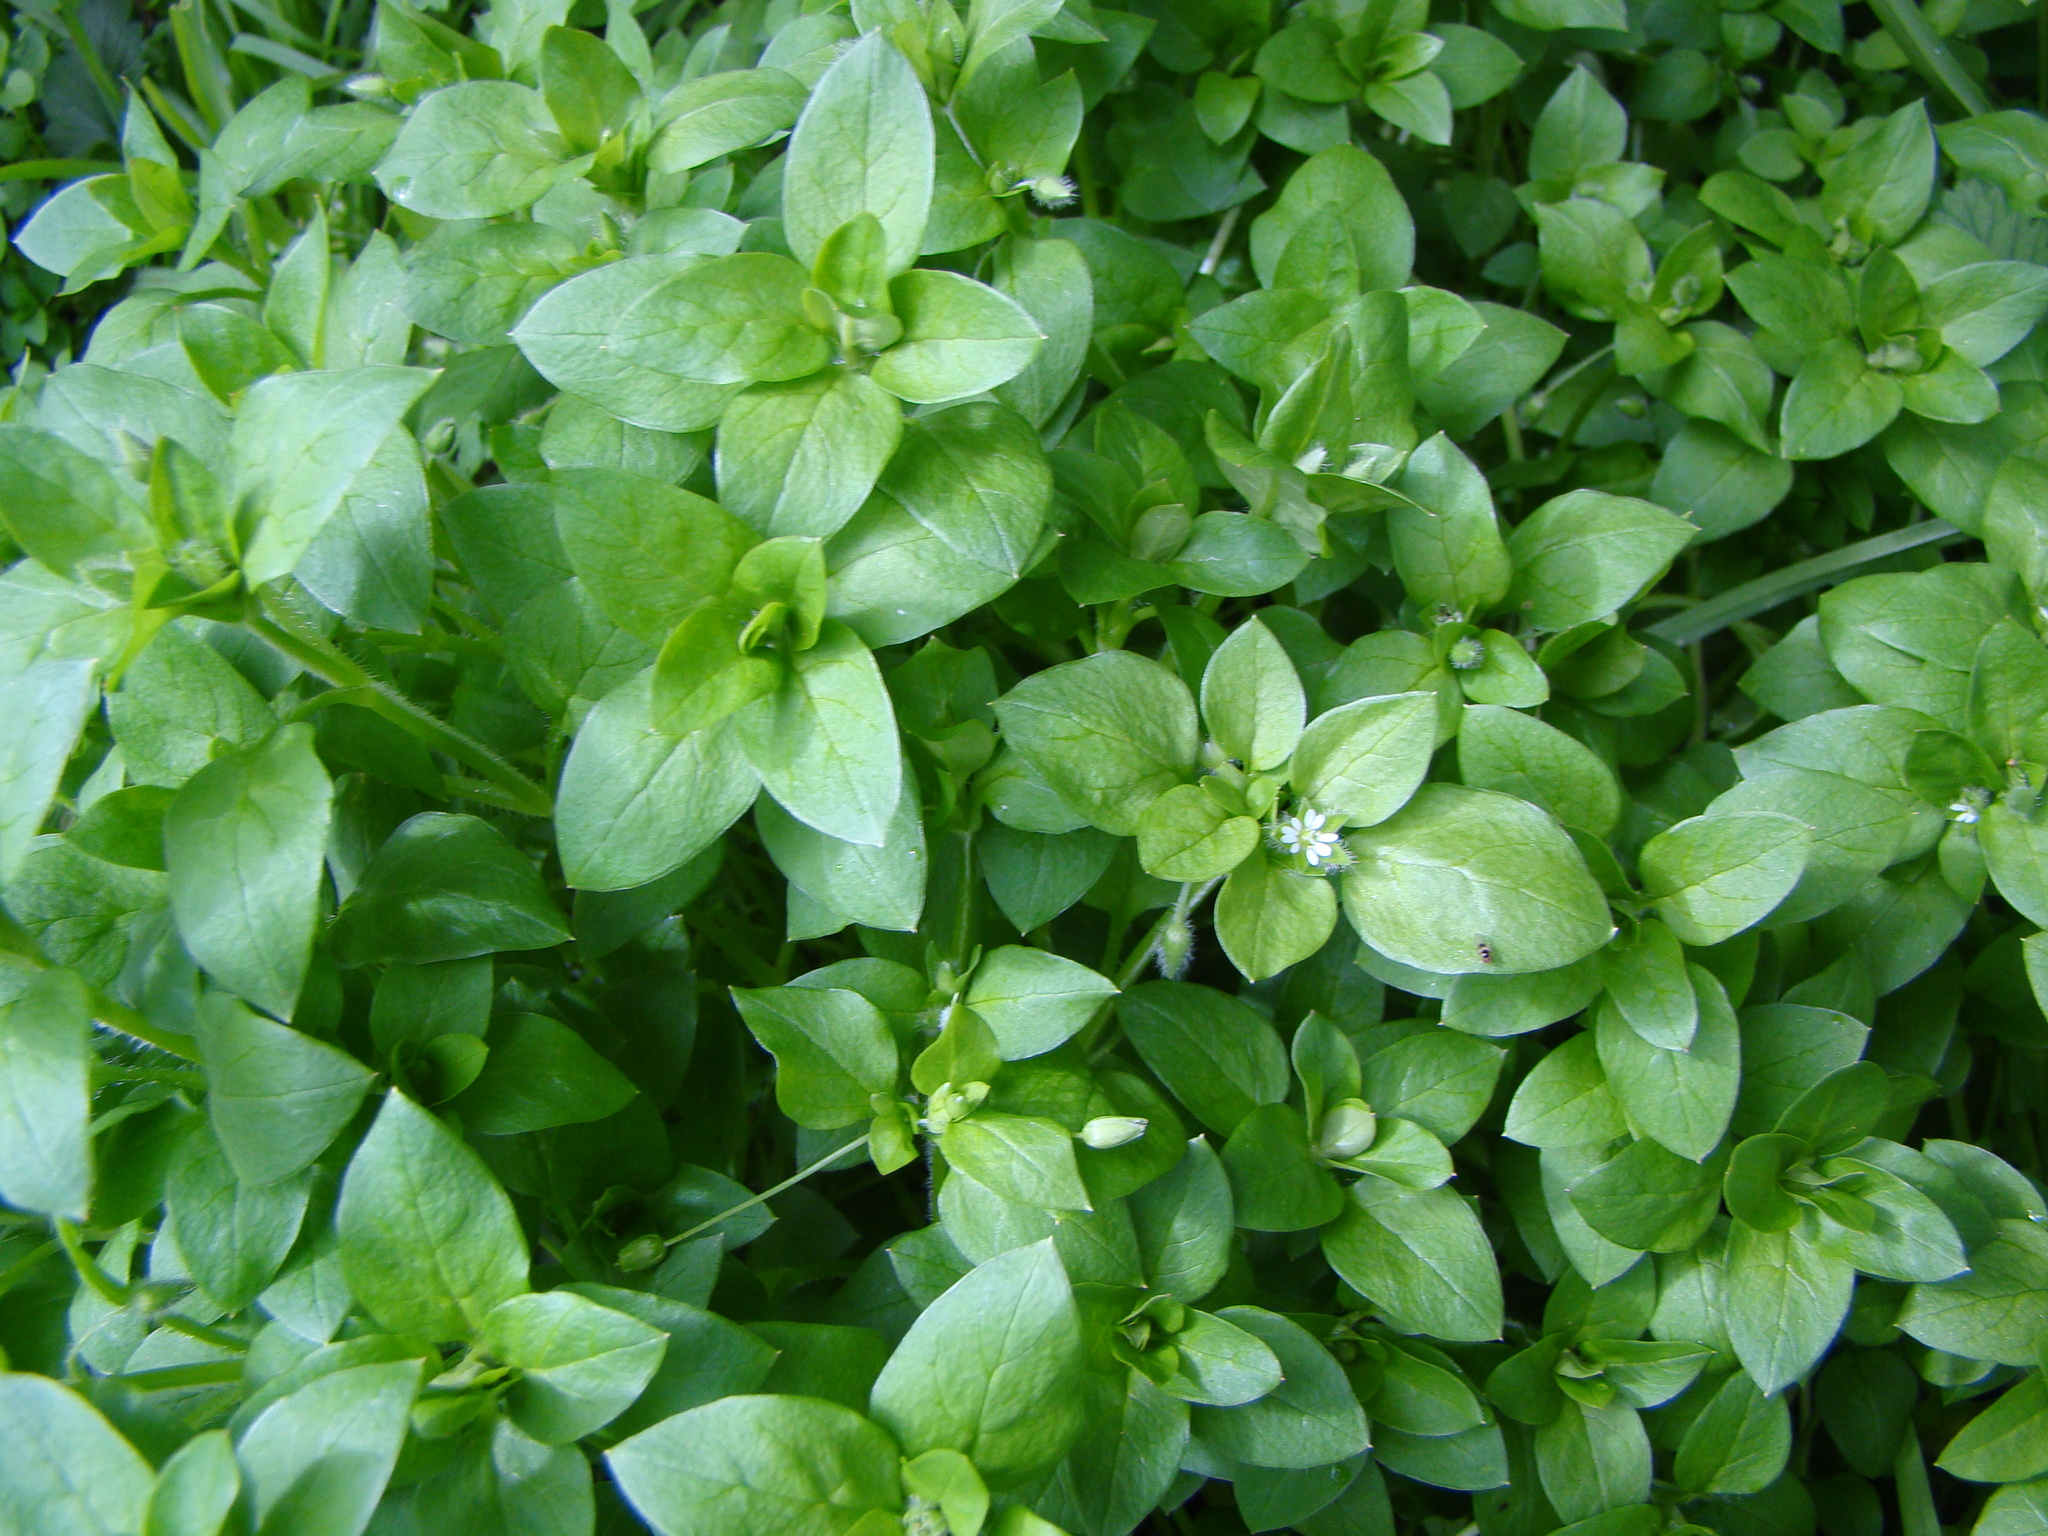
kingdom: Plantae
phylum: Tracheophyta
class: Magnoliopsida
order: Caryophyllales
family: Caryophyllaceae
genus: Stellaria
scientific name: Stellaria media
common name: Common chickweed
